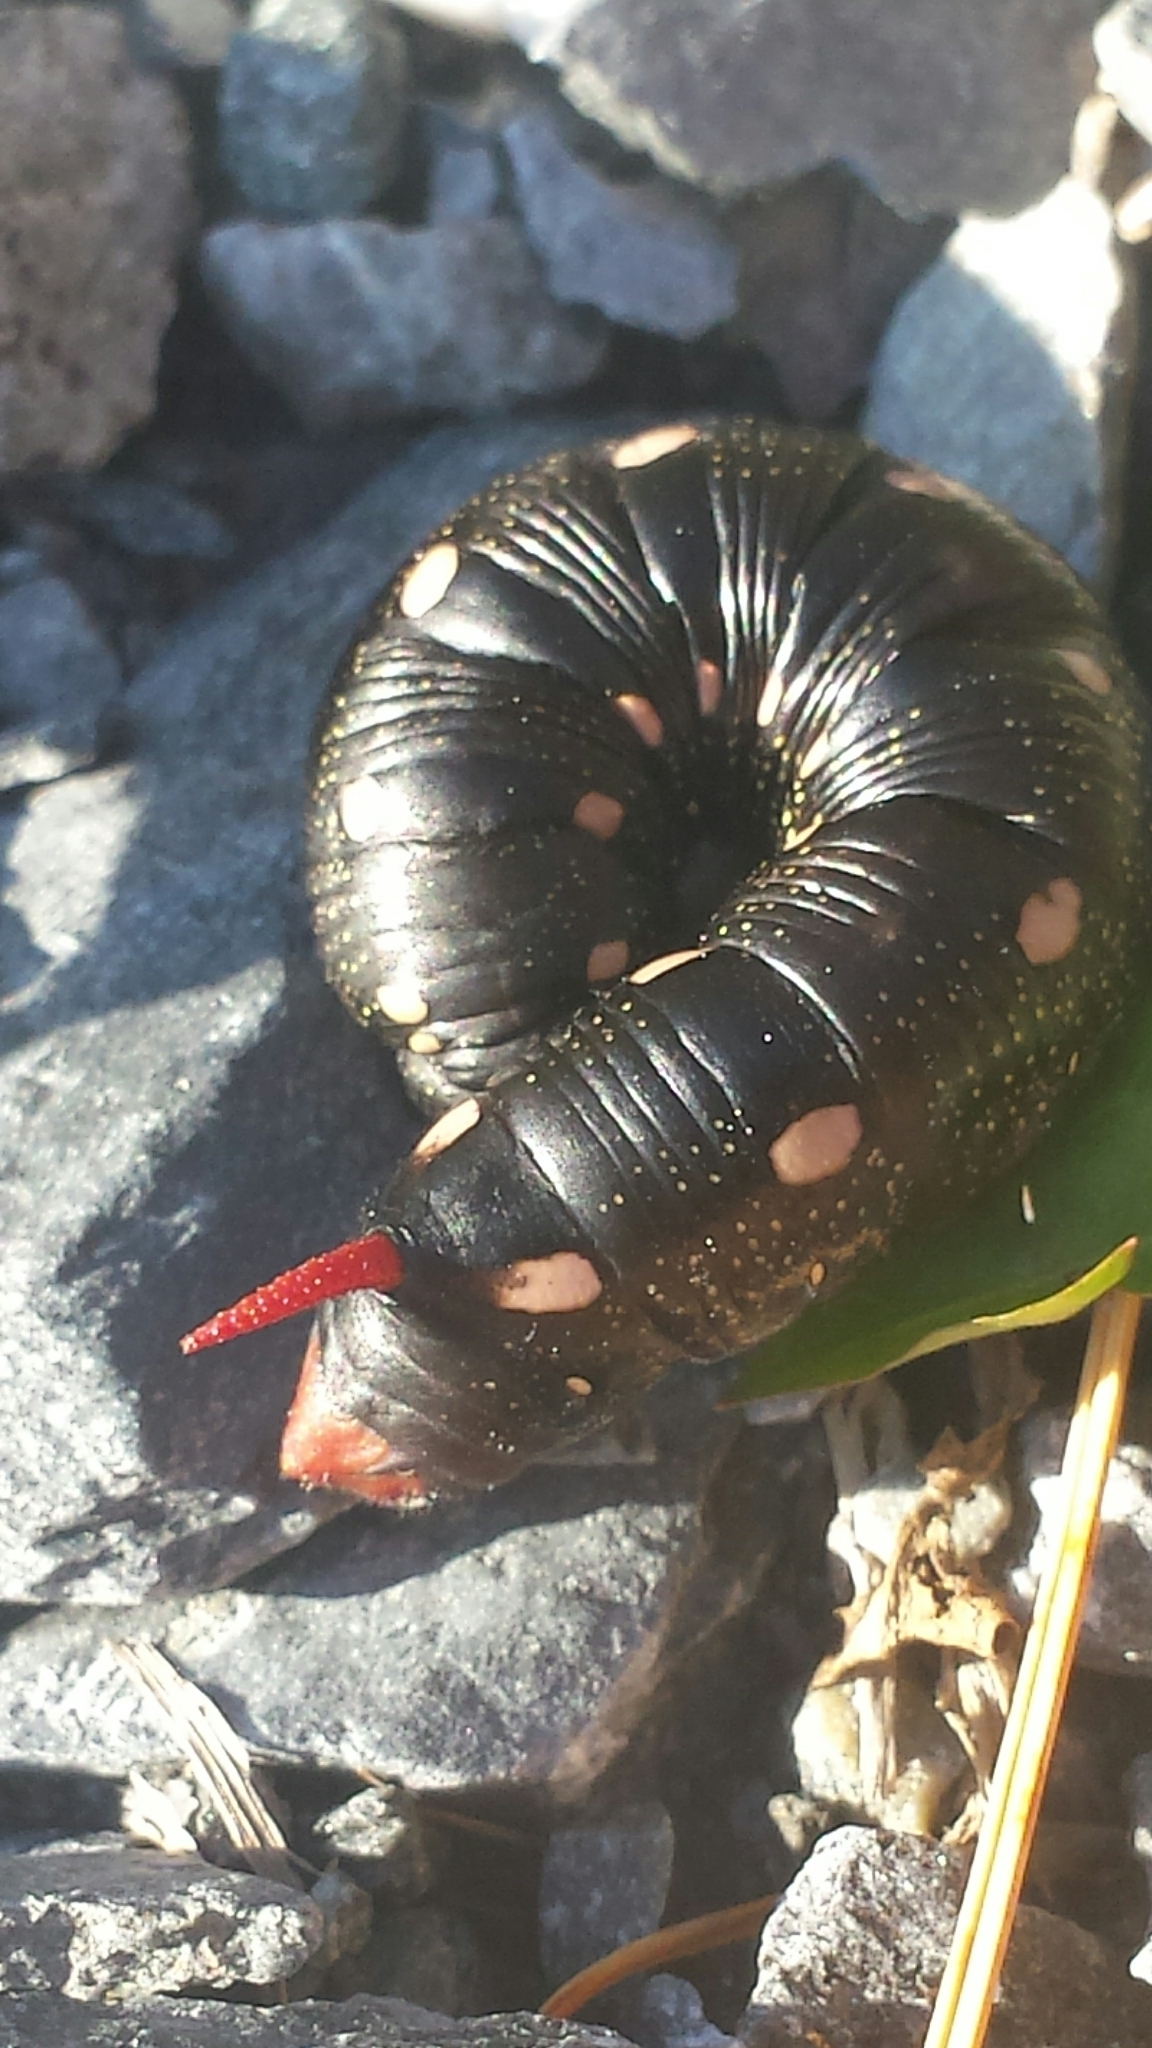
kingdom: Animalia
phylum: Arthropoda
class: Insecta
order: Lepidoptera
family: Sphingidae
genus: Hyles
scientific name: Hyles gallii
